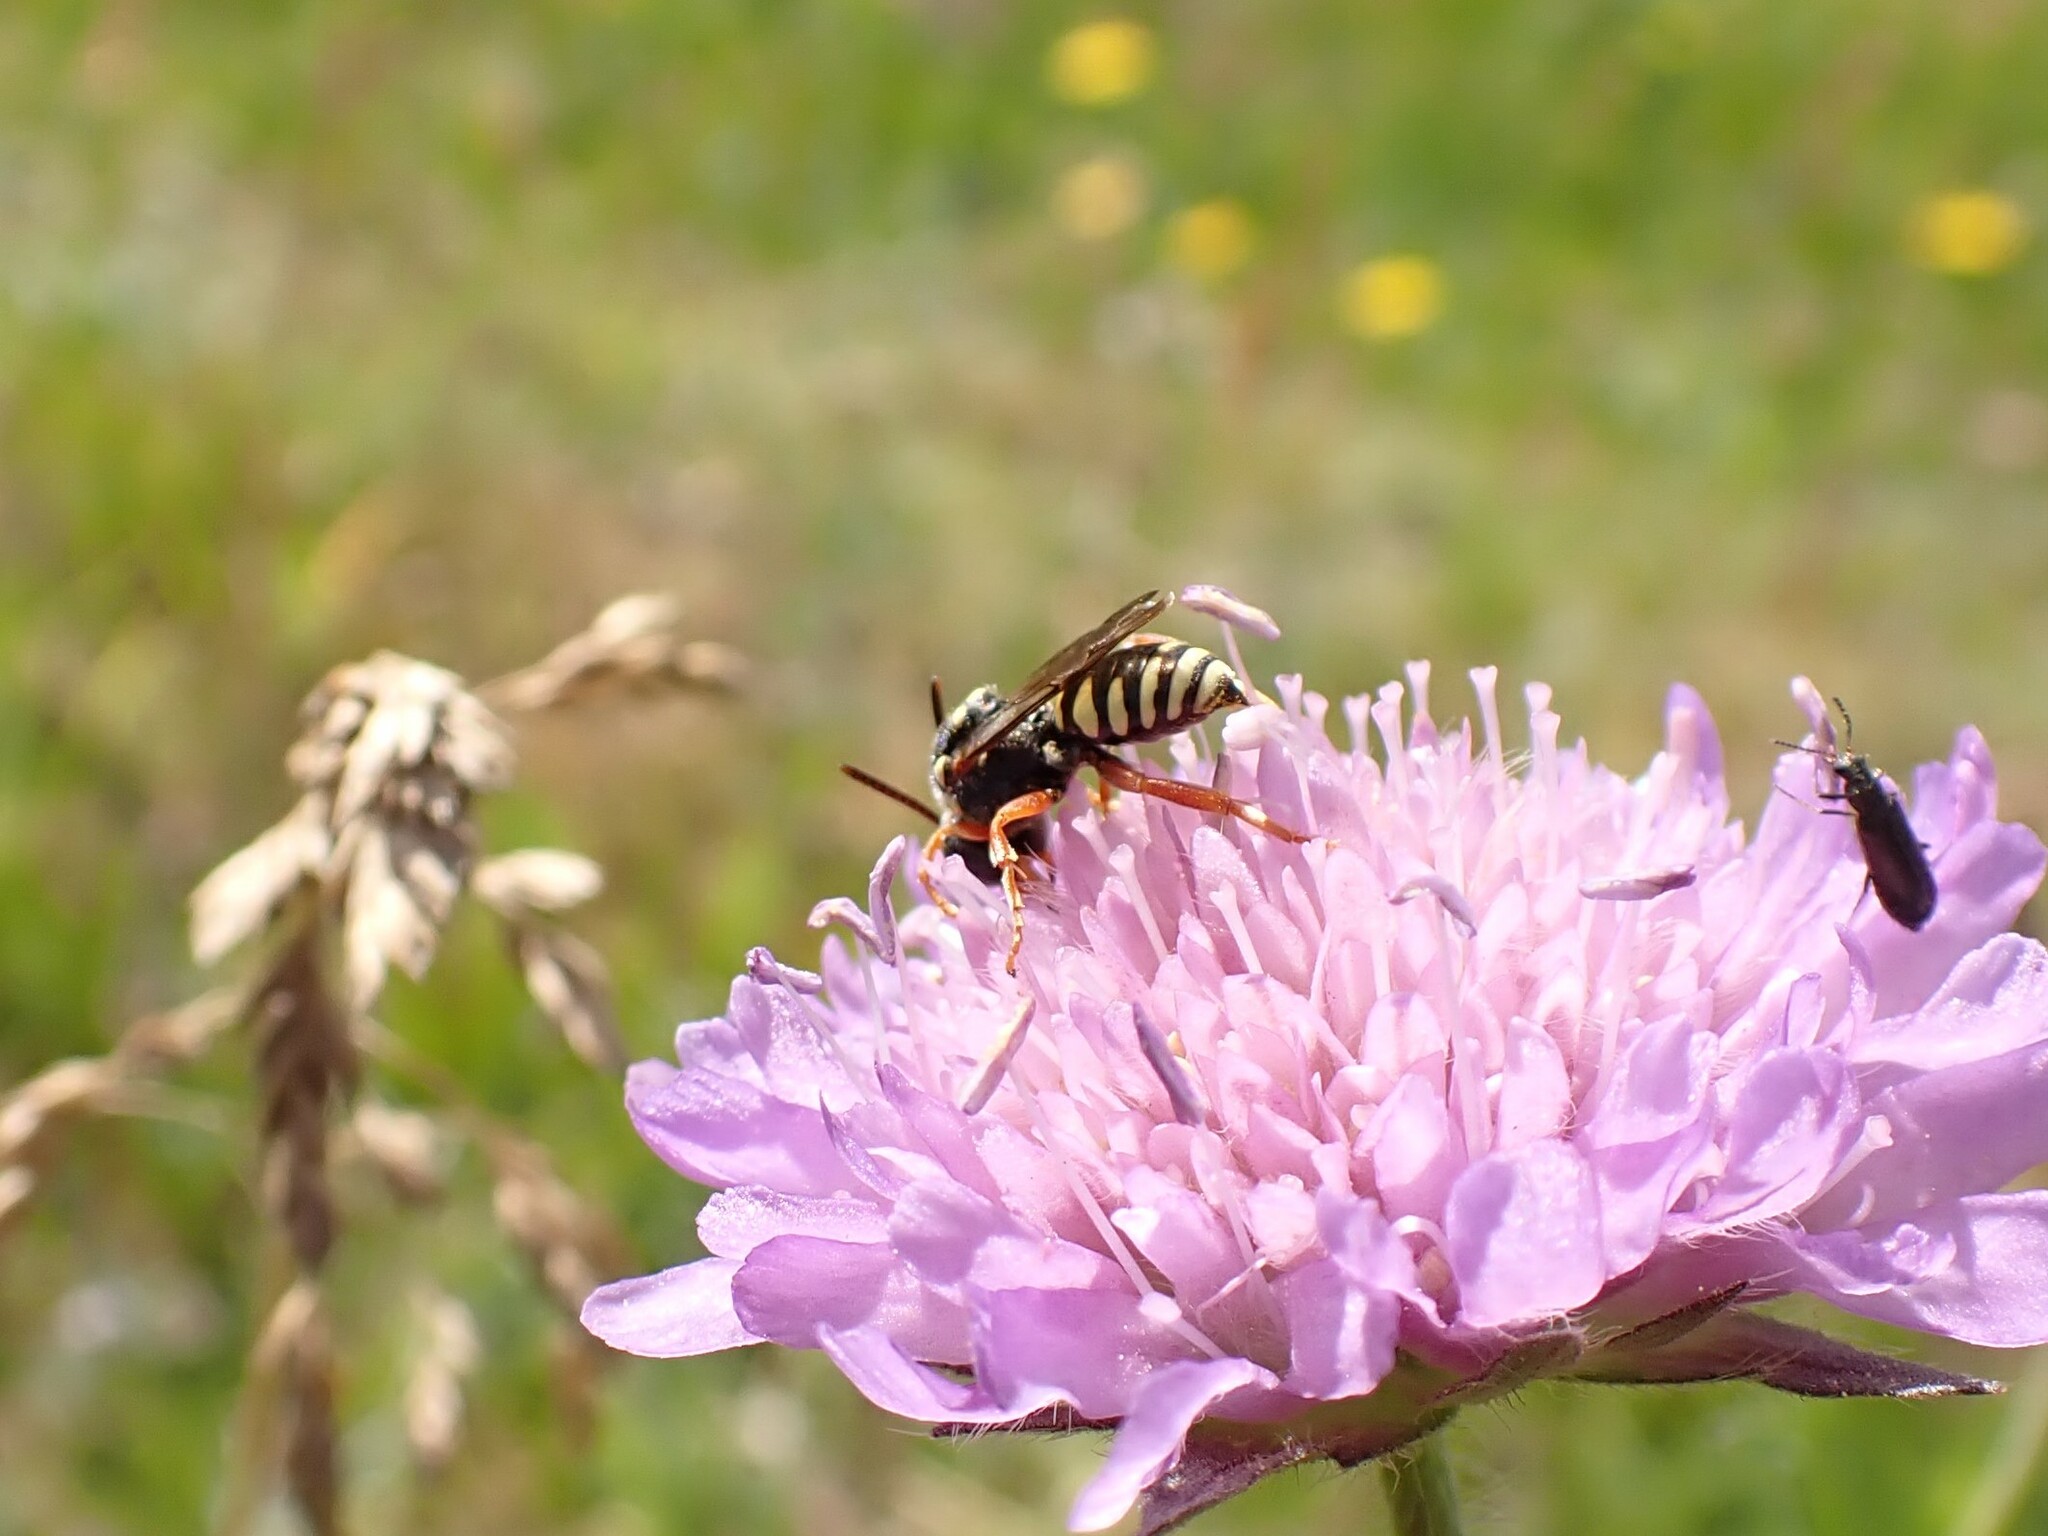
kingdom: Animalia
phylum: Arthropoda
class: Insecta
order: Hymenoptera
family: Apidae
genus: Nomada
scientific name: Nomada flavopicta
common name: Blunthorn nomad bee
